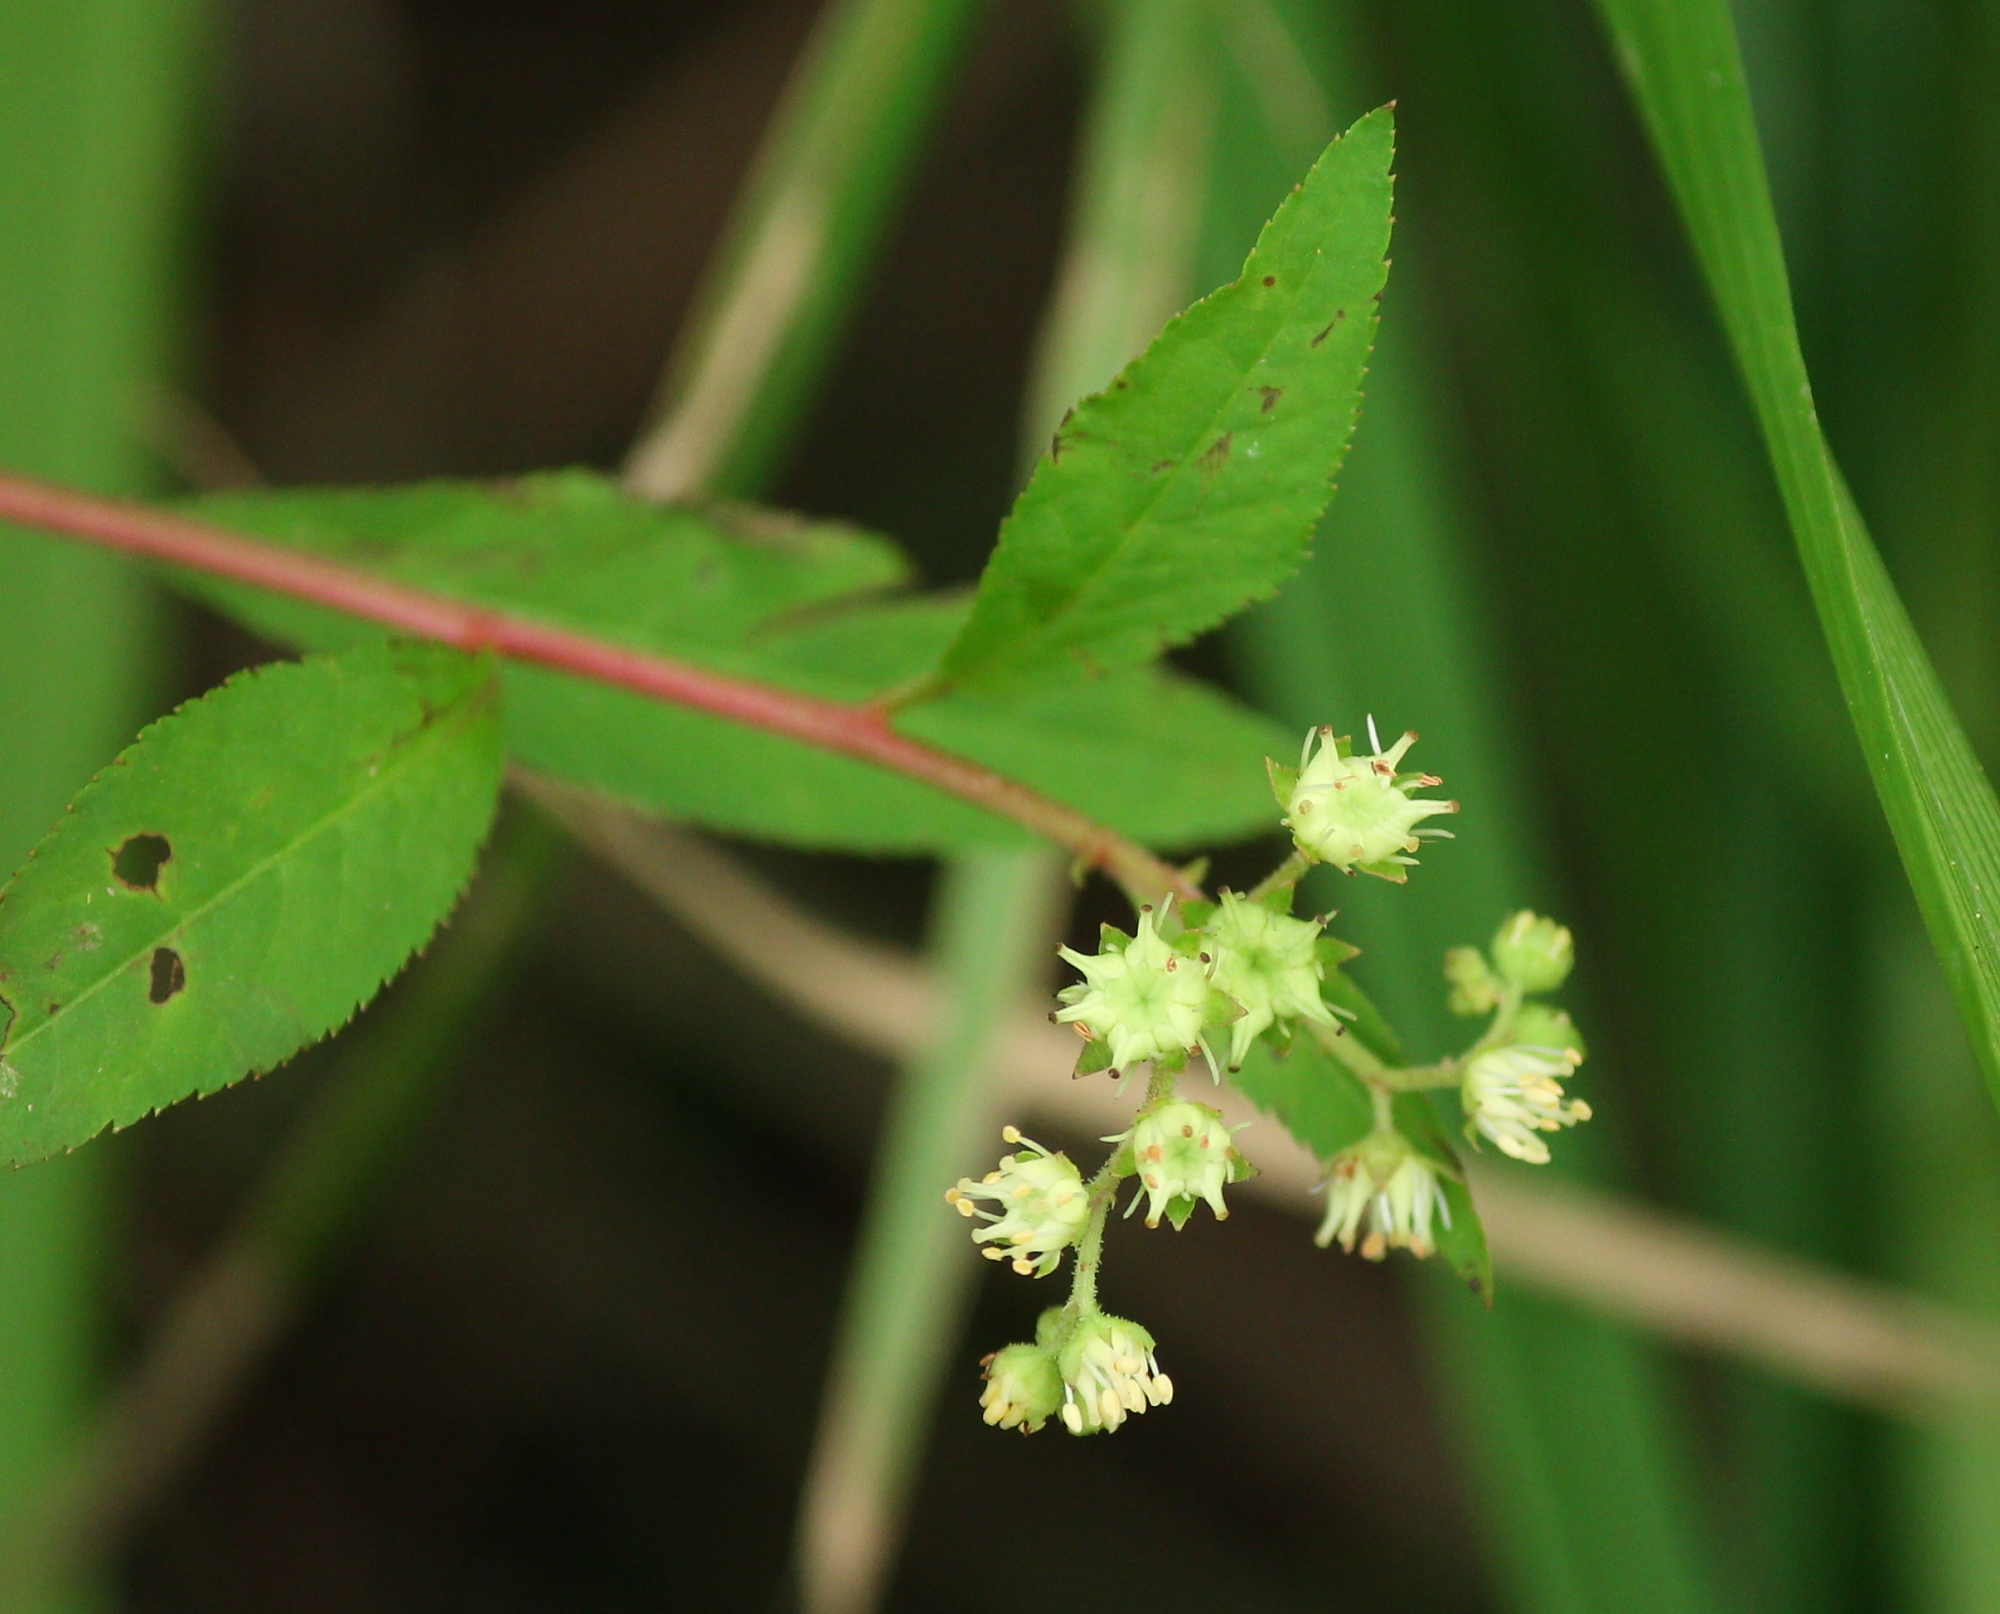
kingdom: Plantae
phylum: Tracheophyta
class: Magnoliopsida
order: Saxifragales
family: Penthoraceae
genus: Penthorum
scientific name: Penthorum sedoides
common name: Ditch stonecrop
